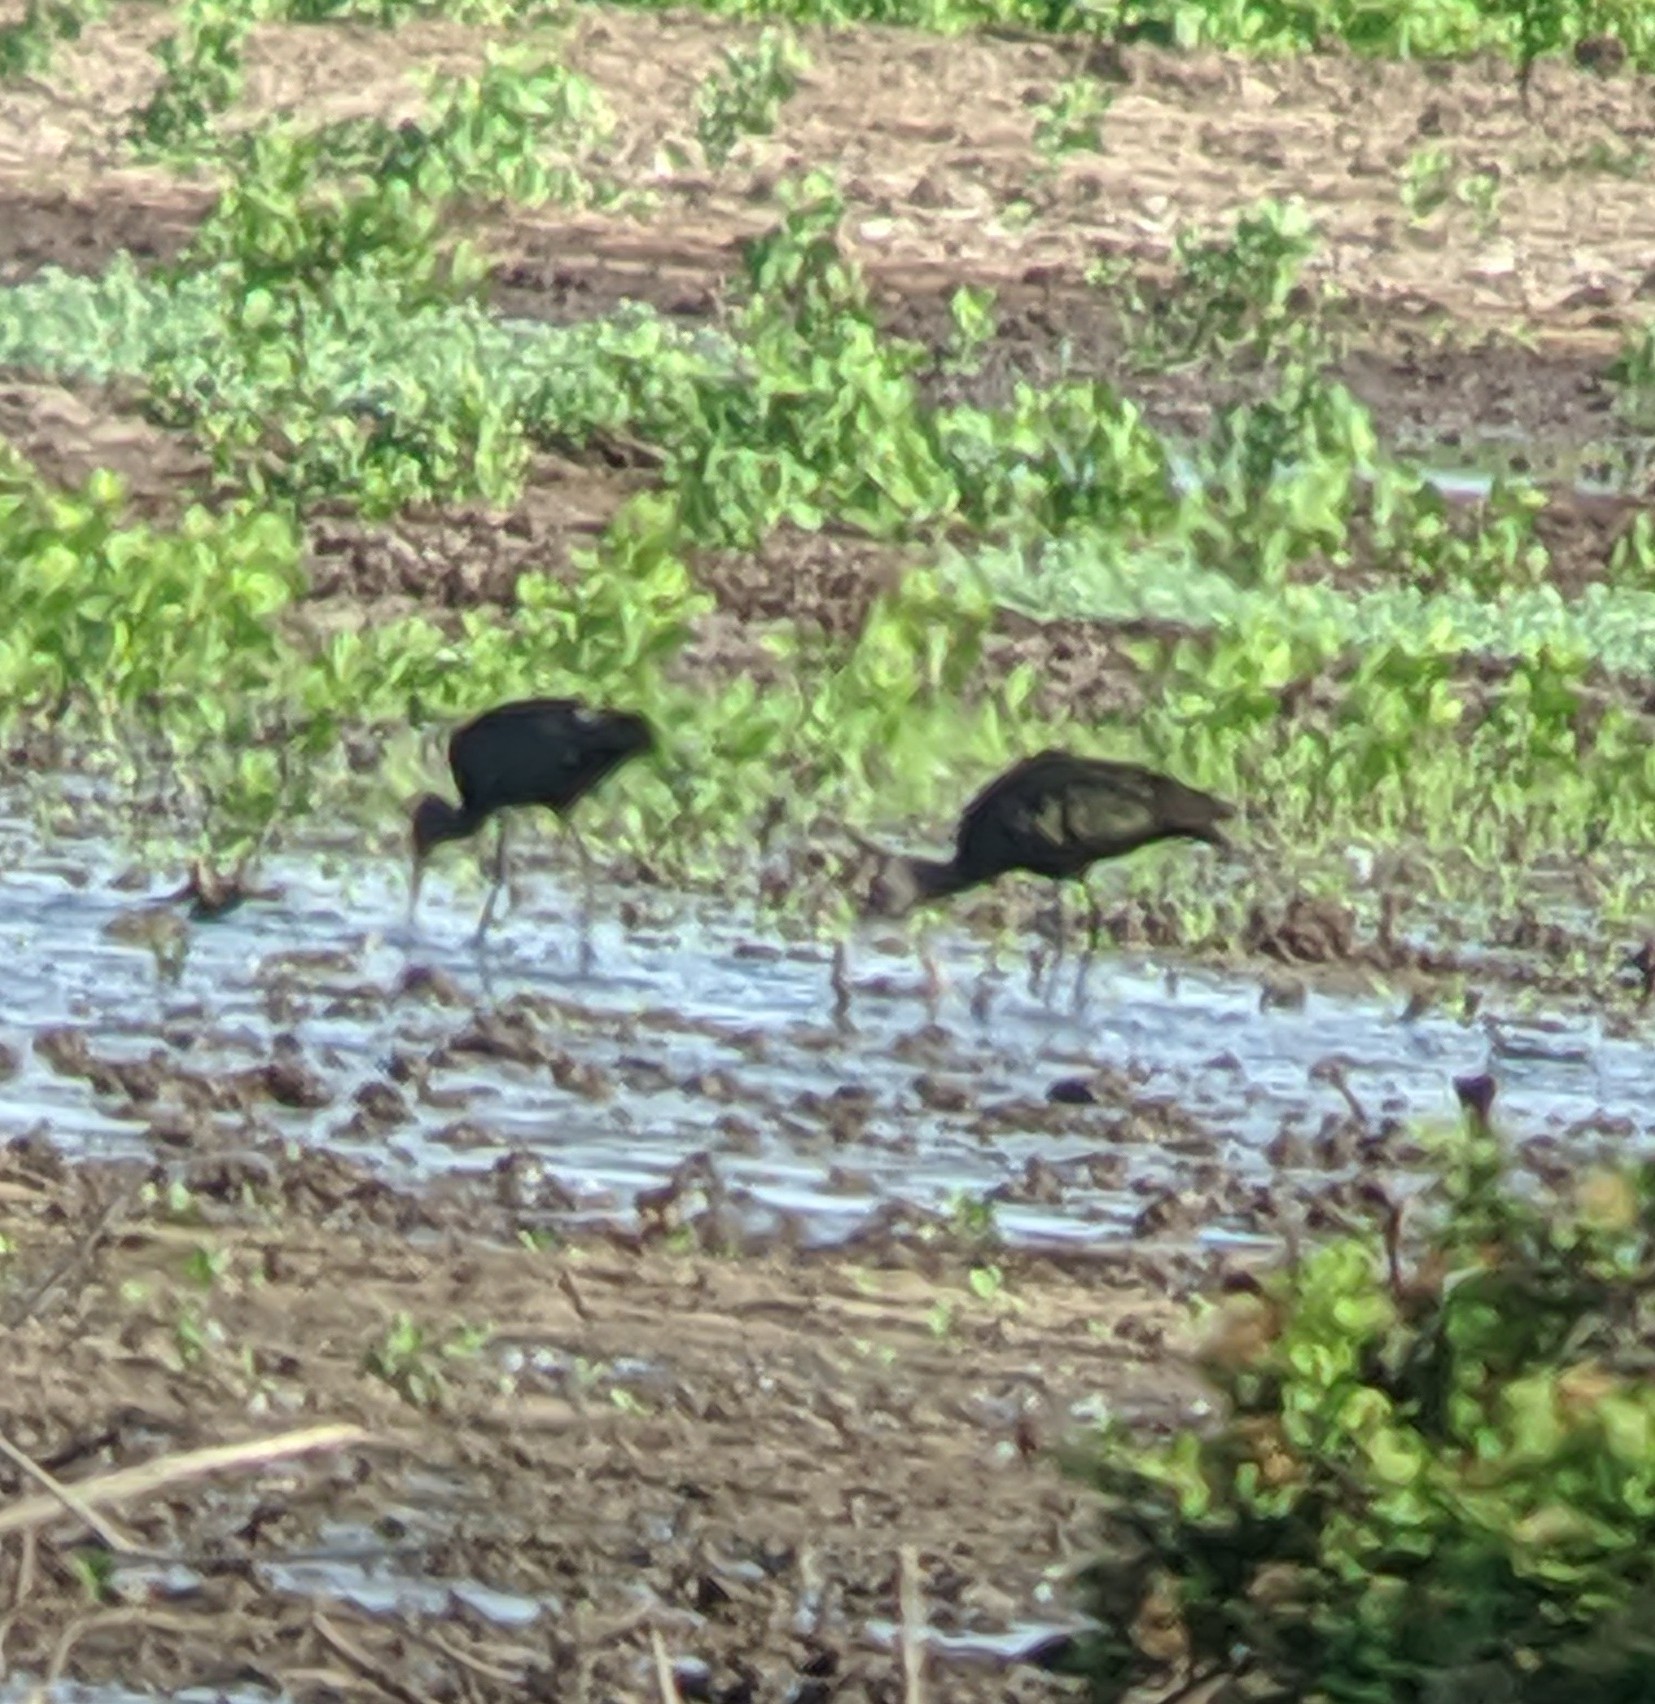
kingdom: Animalia
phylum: Chordata
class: Aves
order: Pelecaniformes
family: Threskiornithidae
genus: Plegadis
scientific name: Plegadis chihi
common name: White-faced ibis
